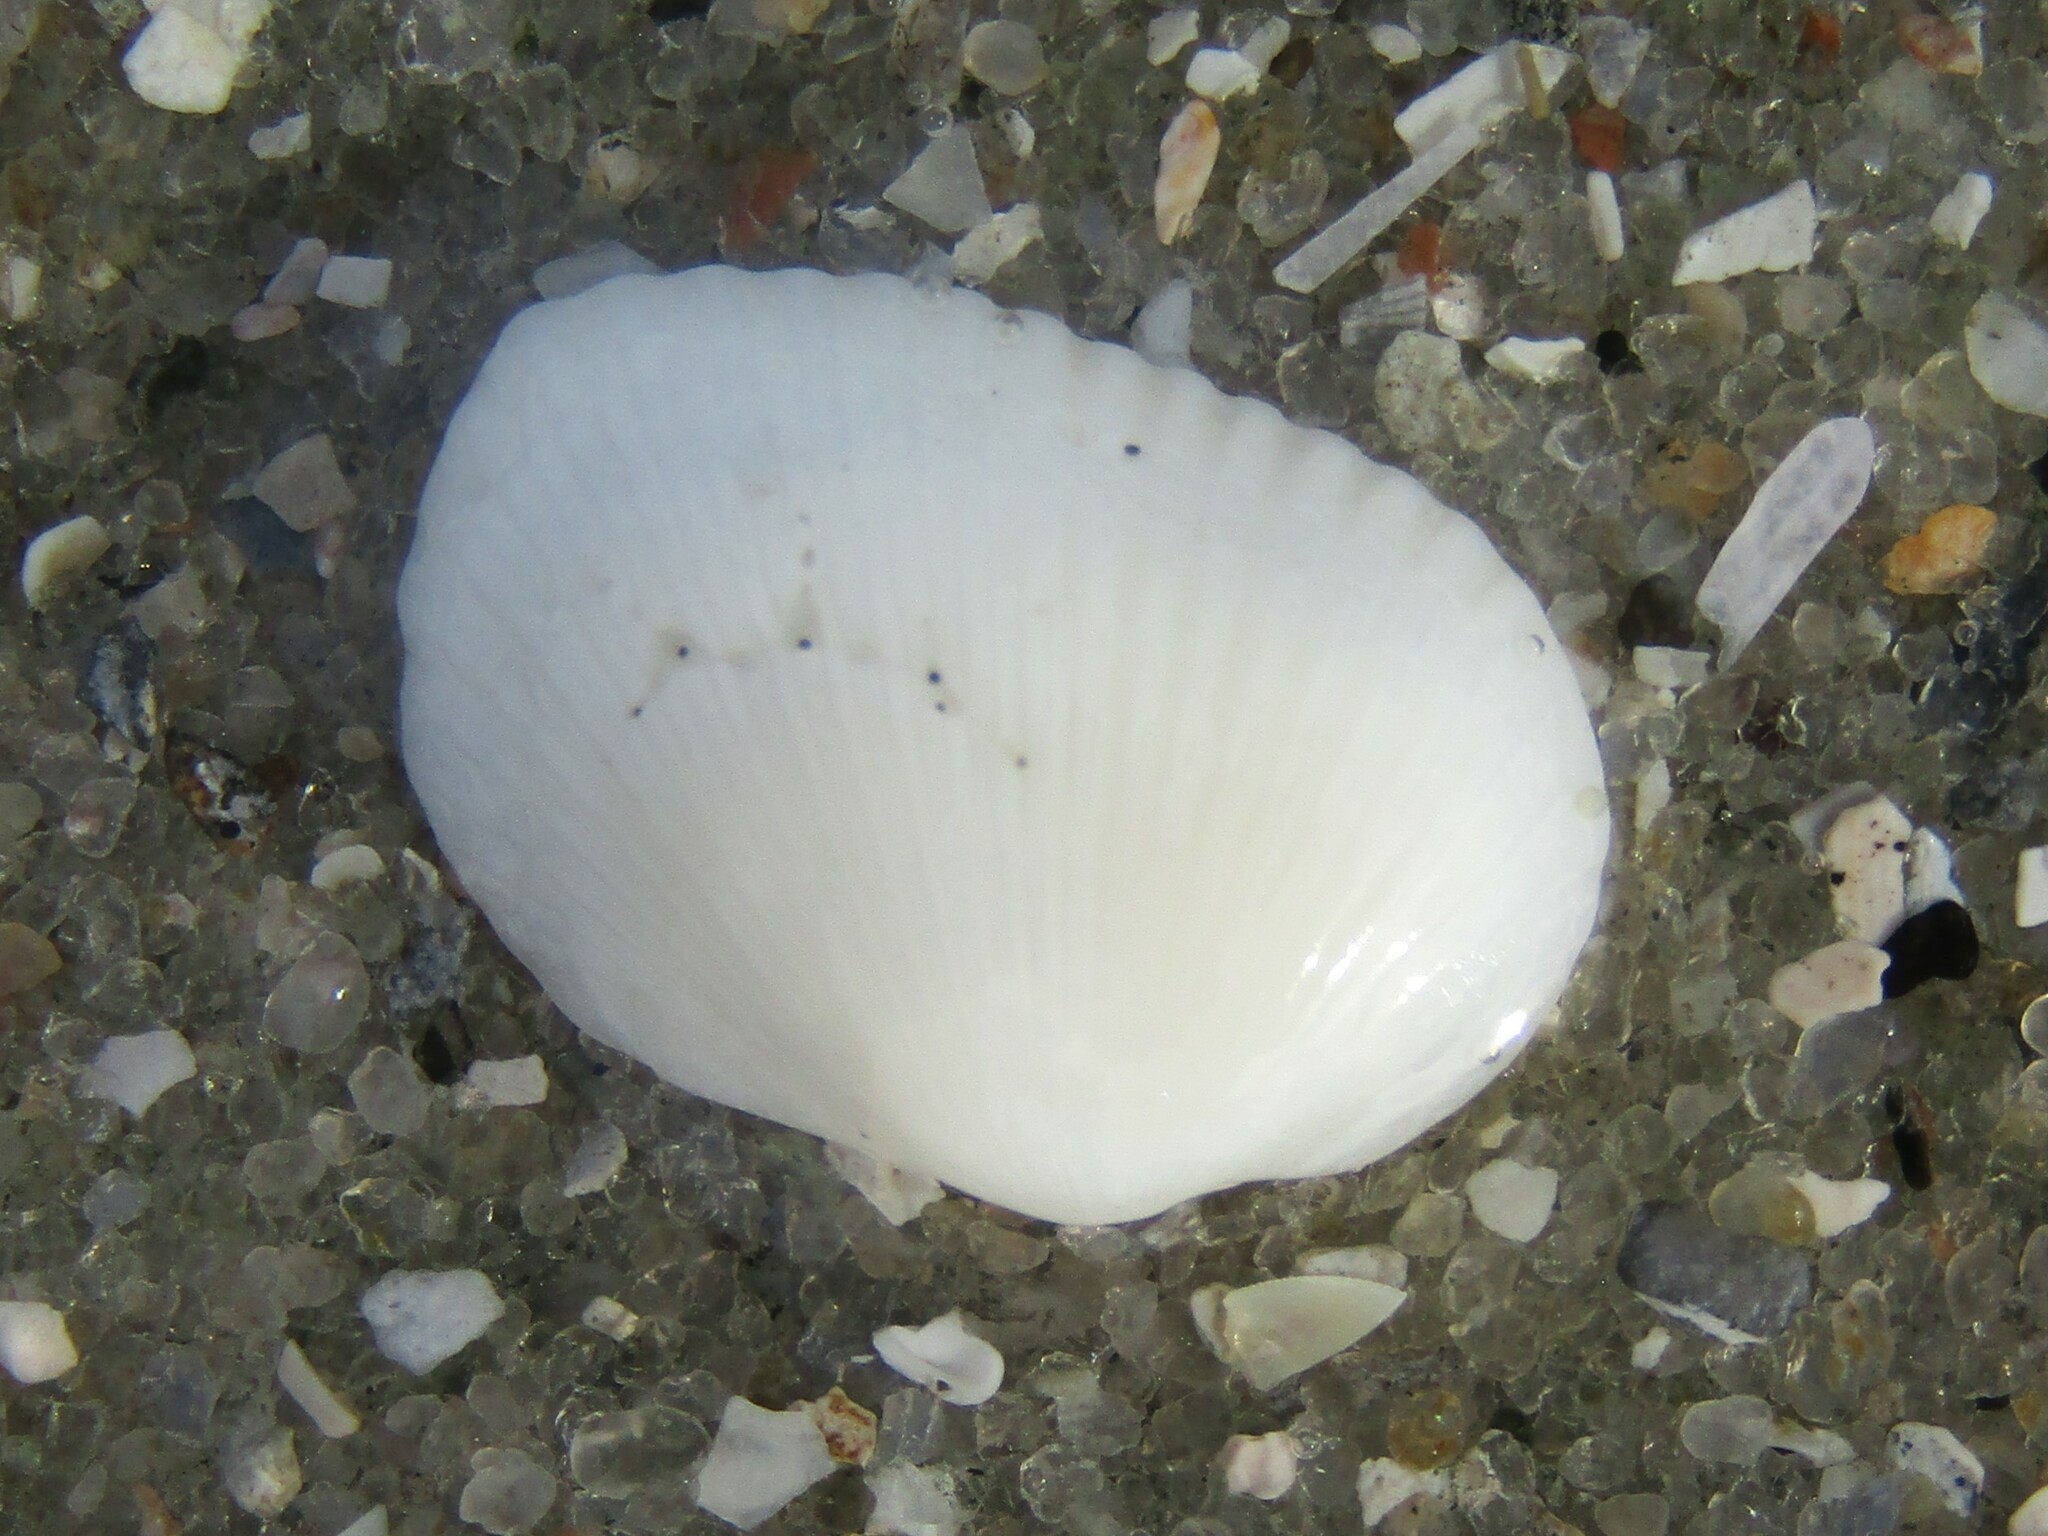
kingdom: Animalia
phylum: Mollusca
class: Bivalvia
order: Arcida
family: Arcidae
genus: Anadara
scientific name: Anadara transversa
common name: Transverse ark
